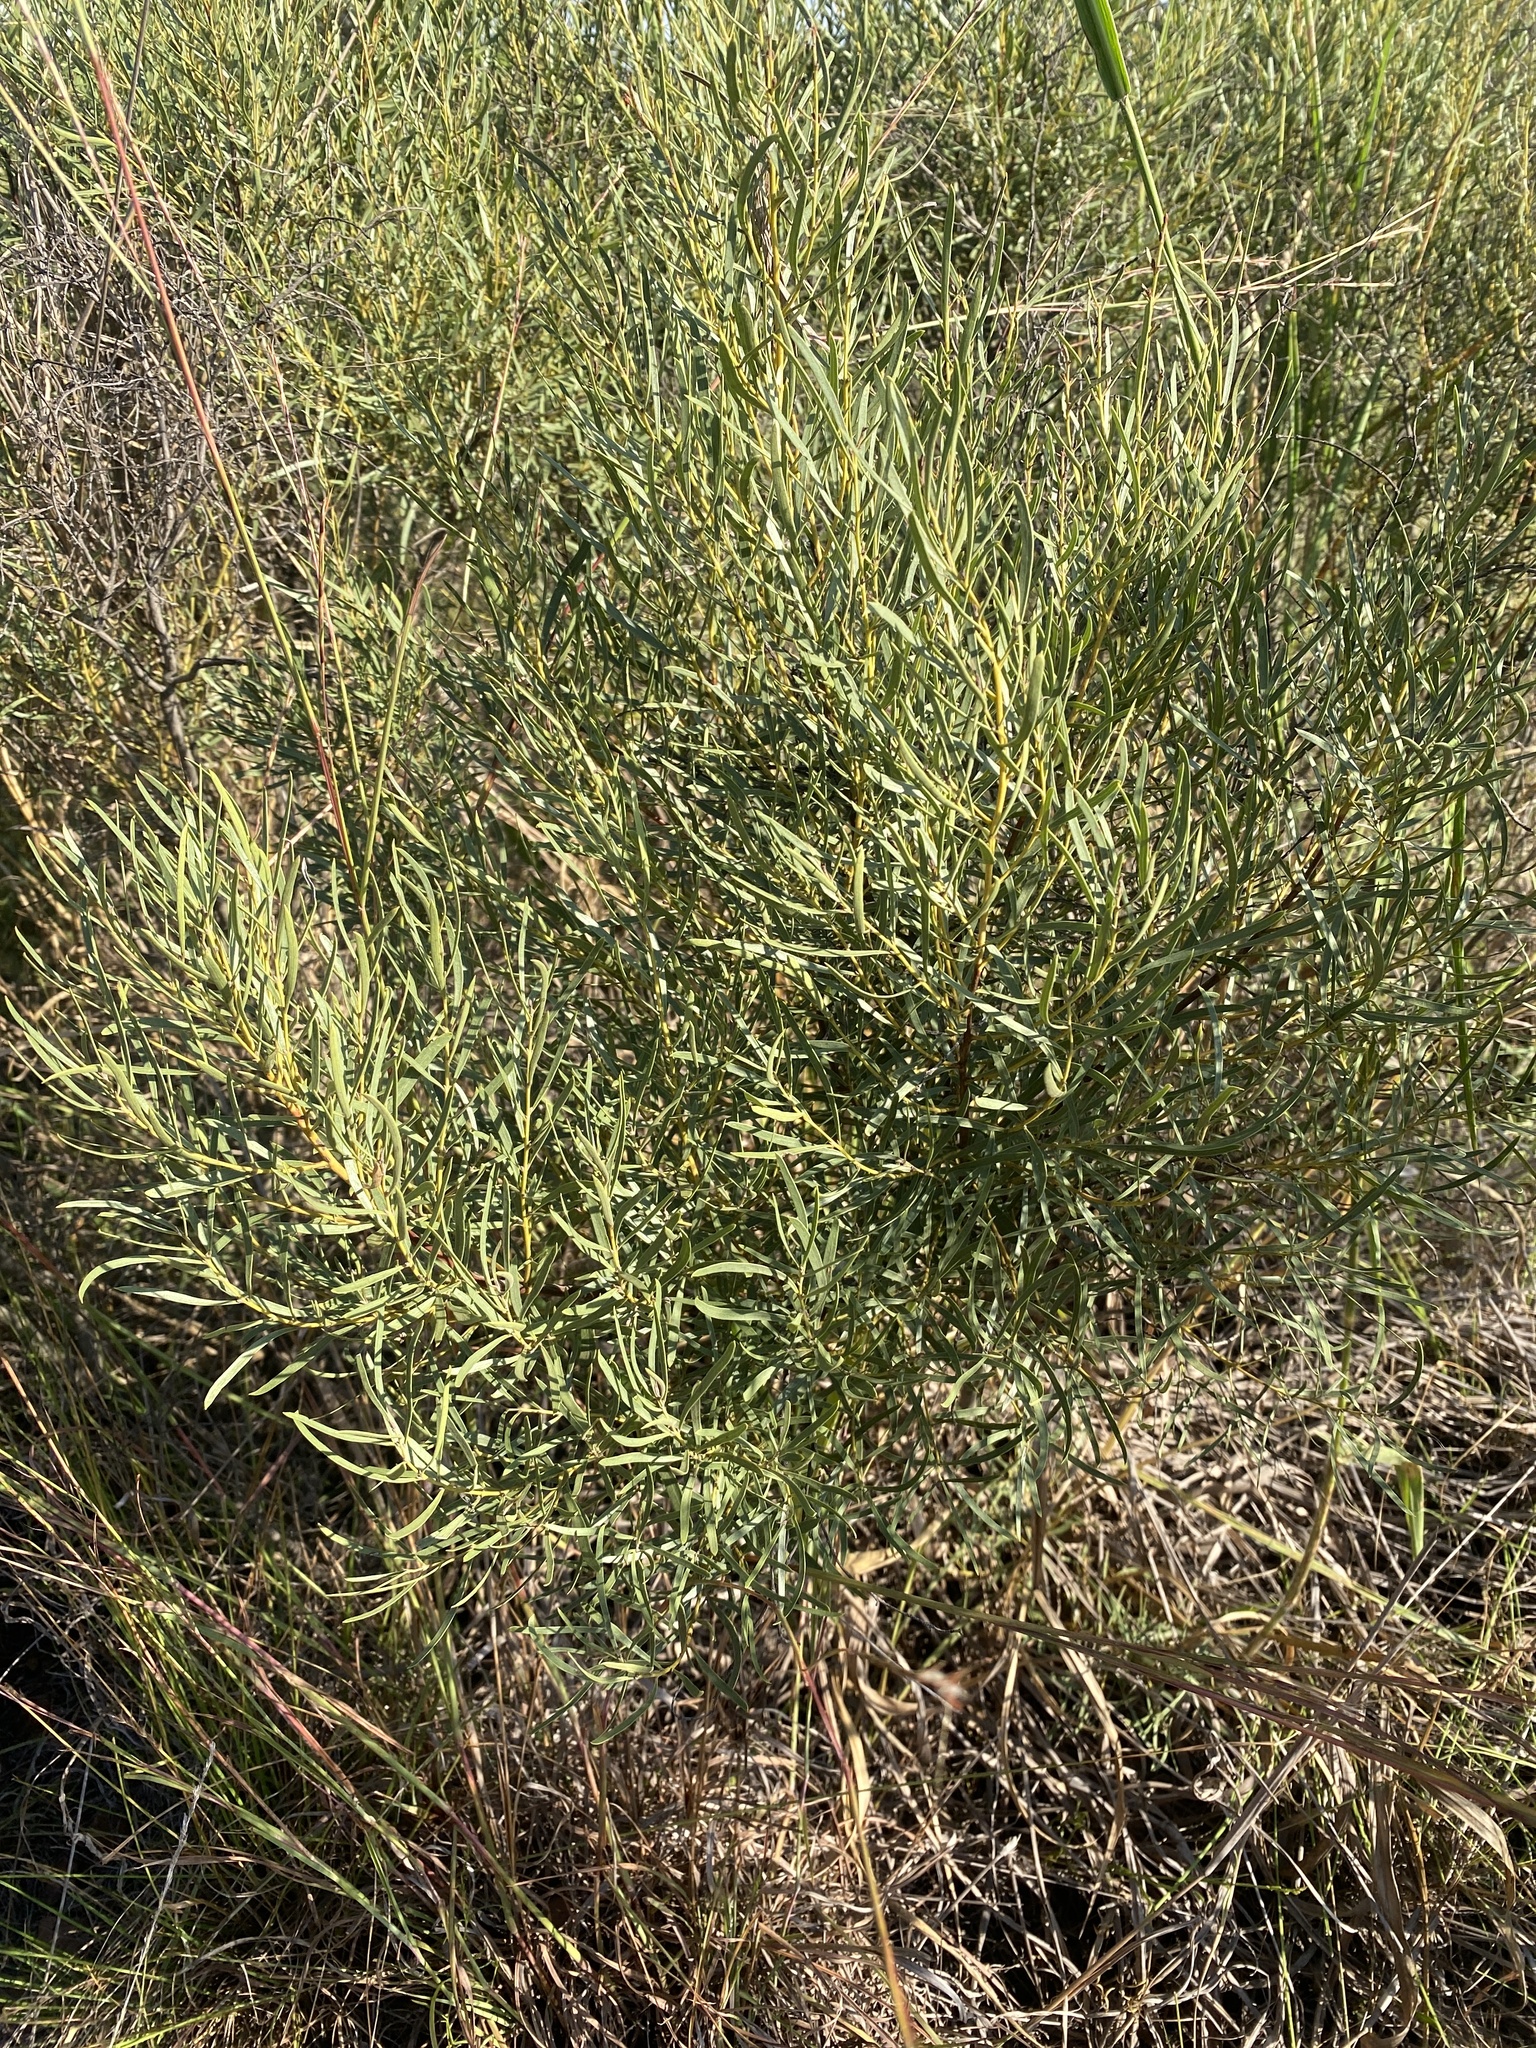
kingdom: Plantae
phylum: Tracheophyta
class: Magnoliopsida
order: Ericales
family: Ebenaceae
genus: Euclea
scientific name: Euclea linearis
